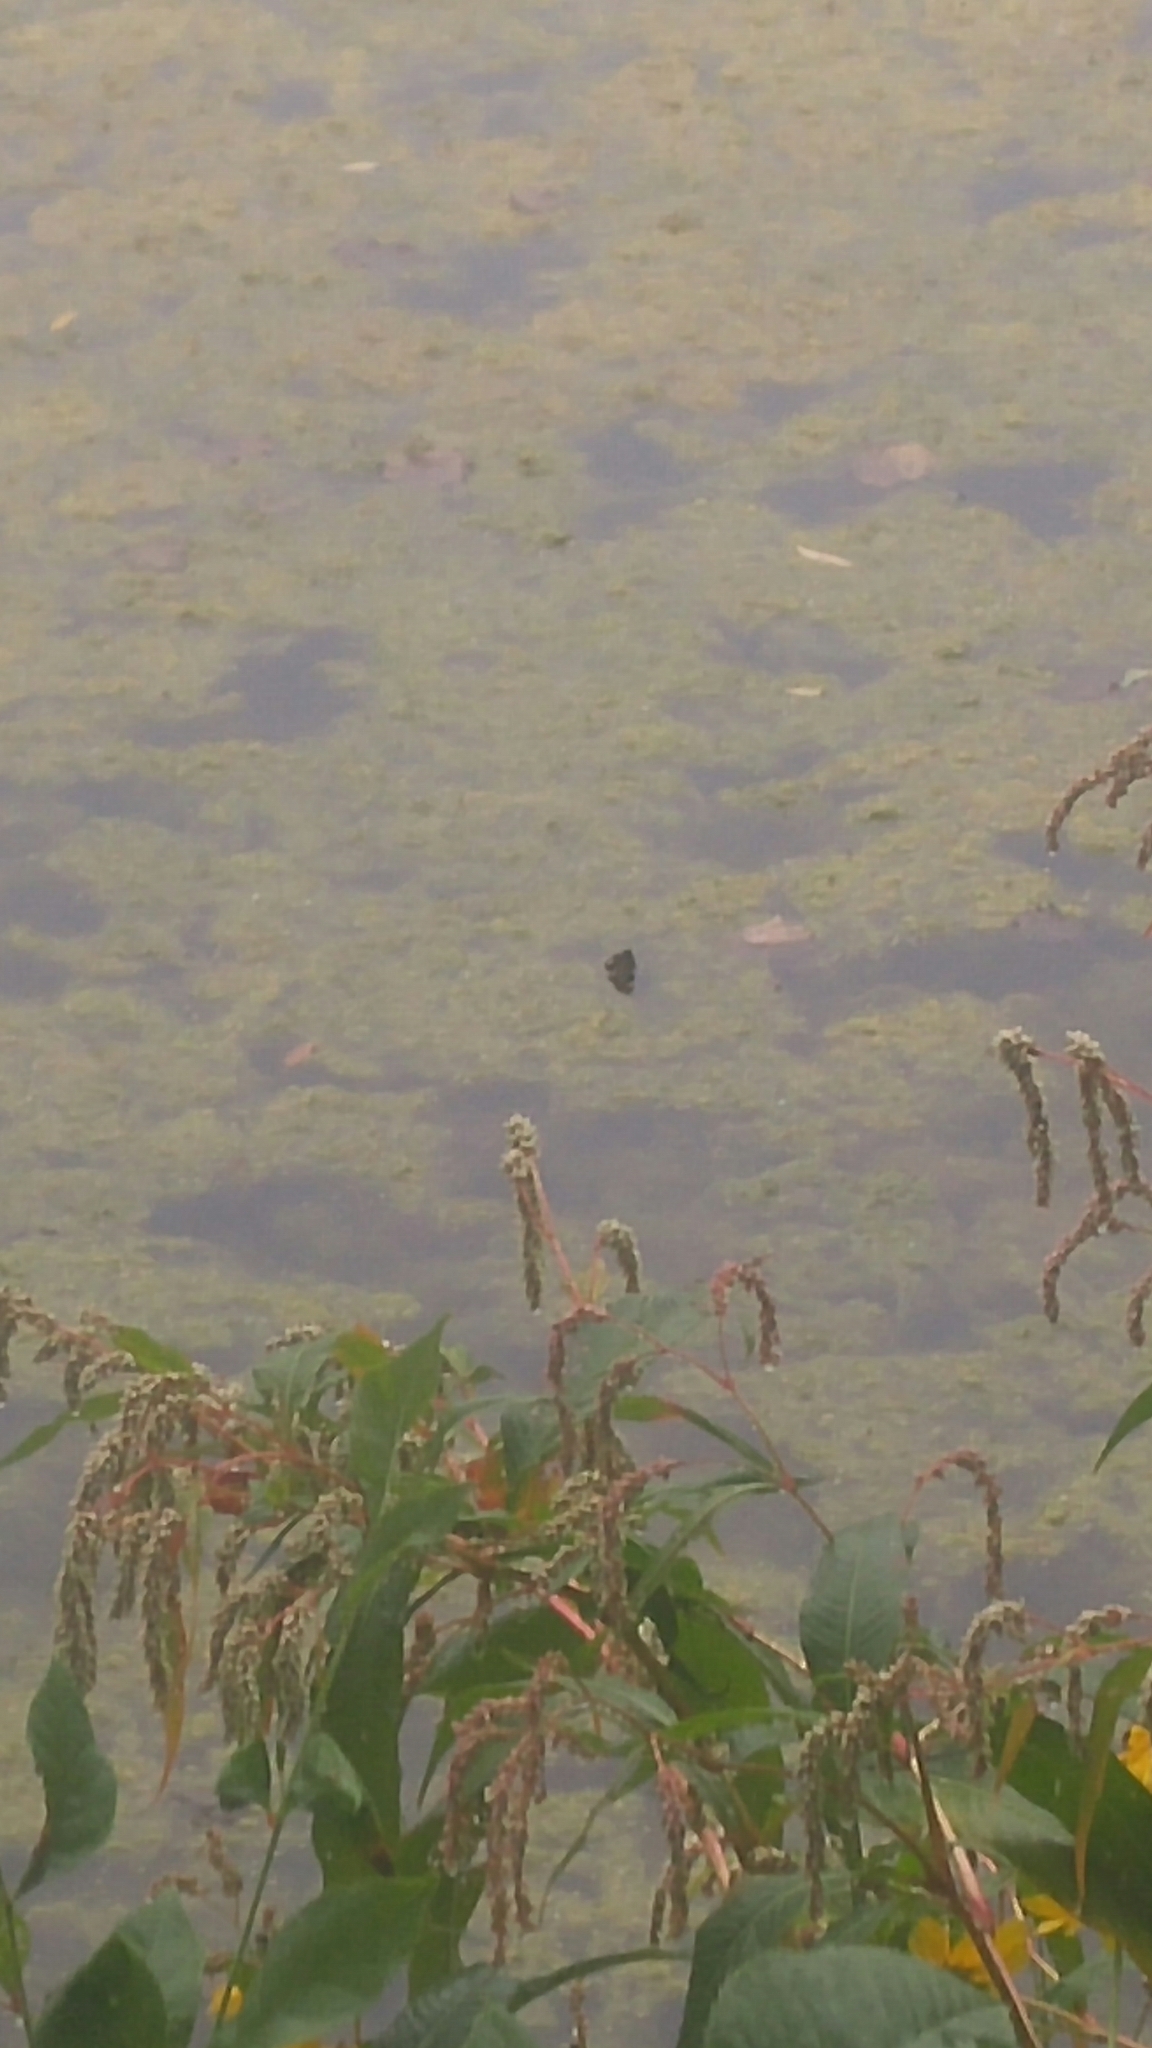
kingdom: Animalia
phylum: Chordata
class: Testudines
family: Emydidae
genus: Chrysemys
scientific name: Chrysemys picta
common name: Painted turtle
